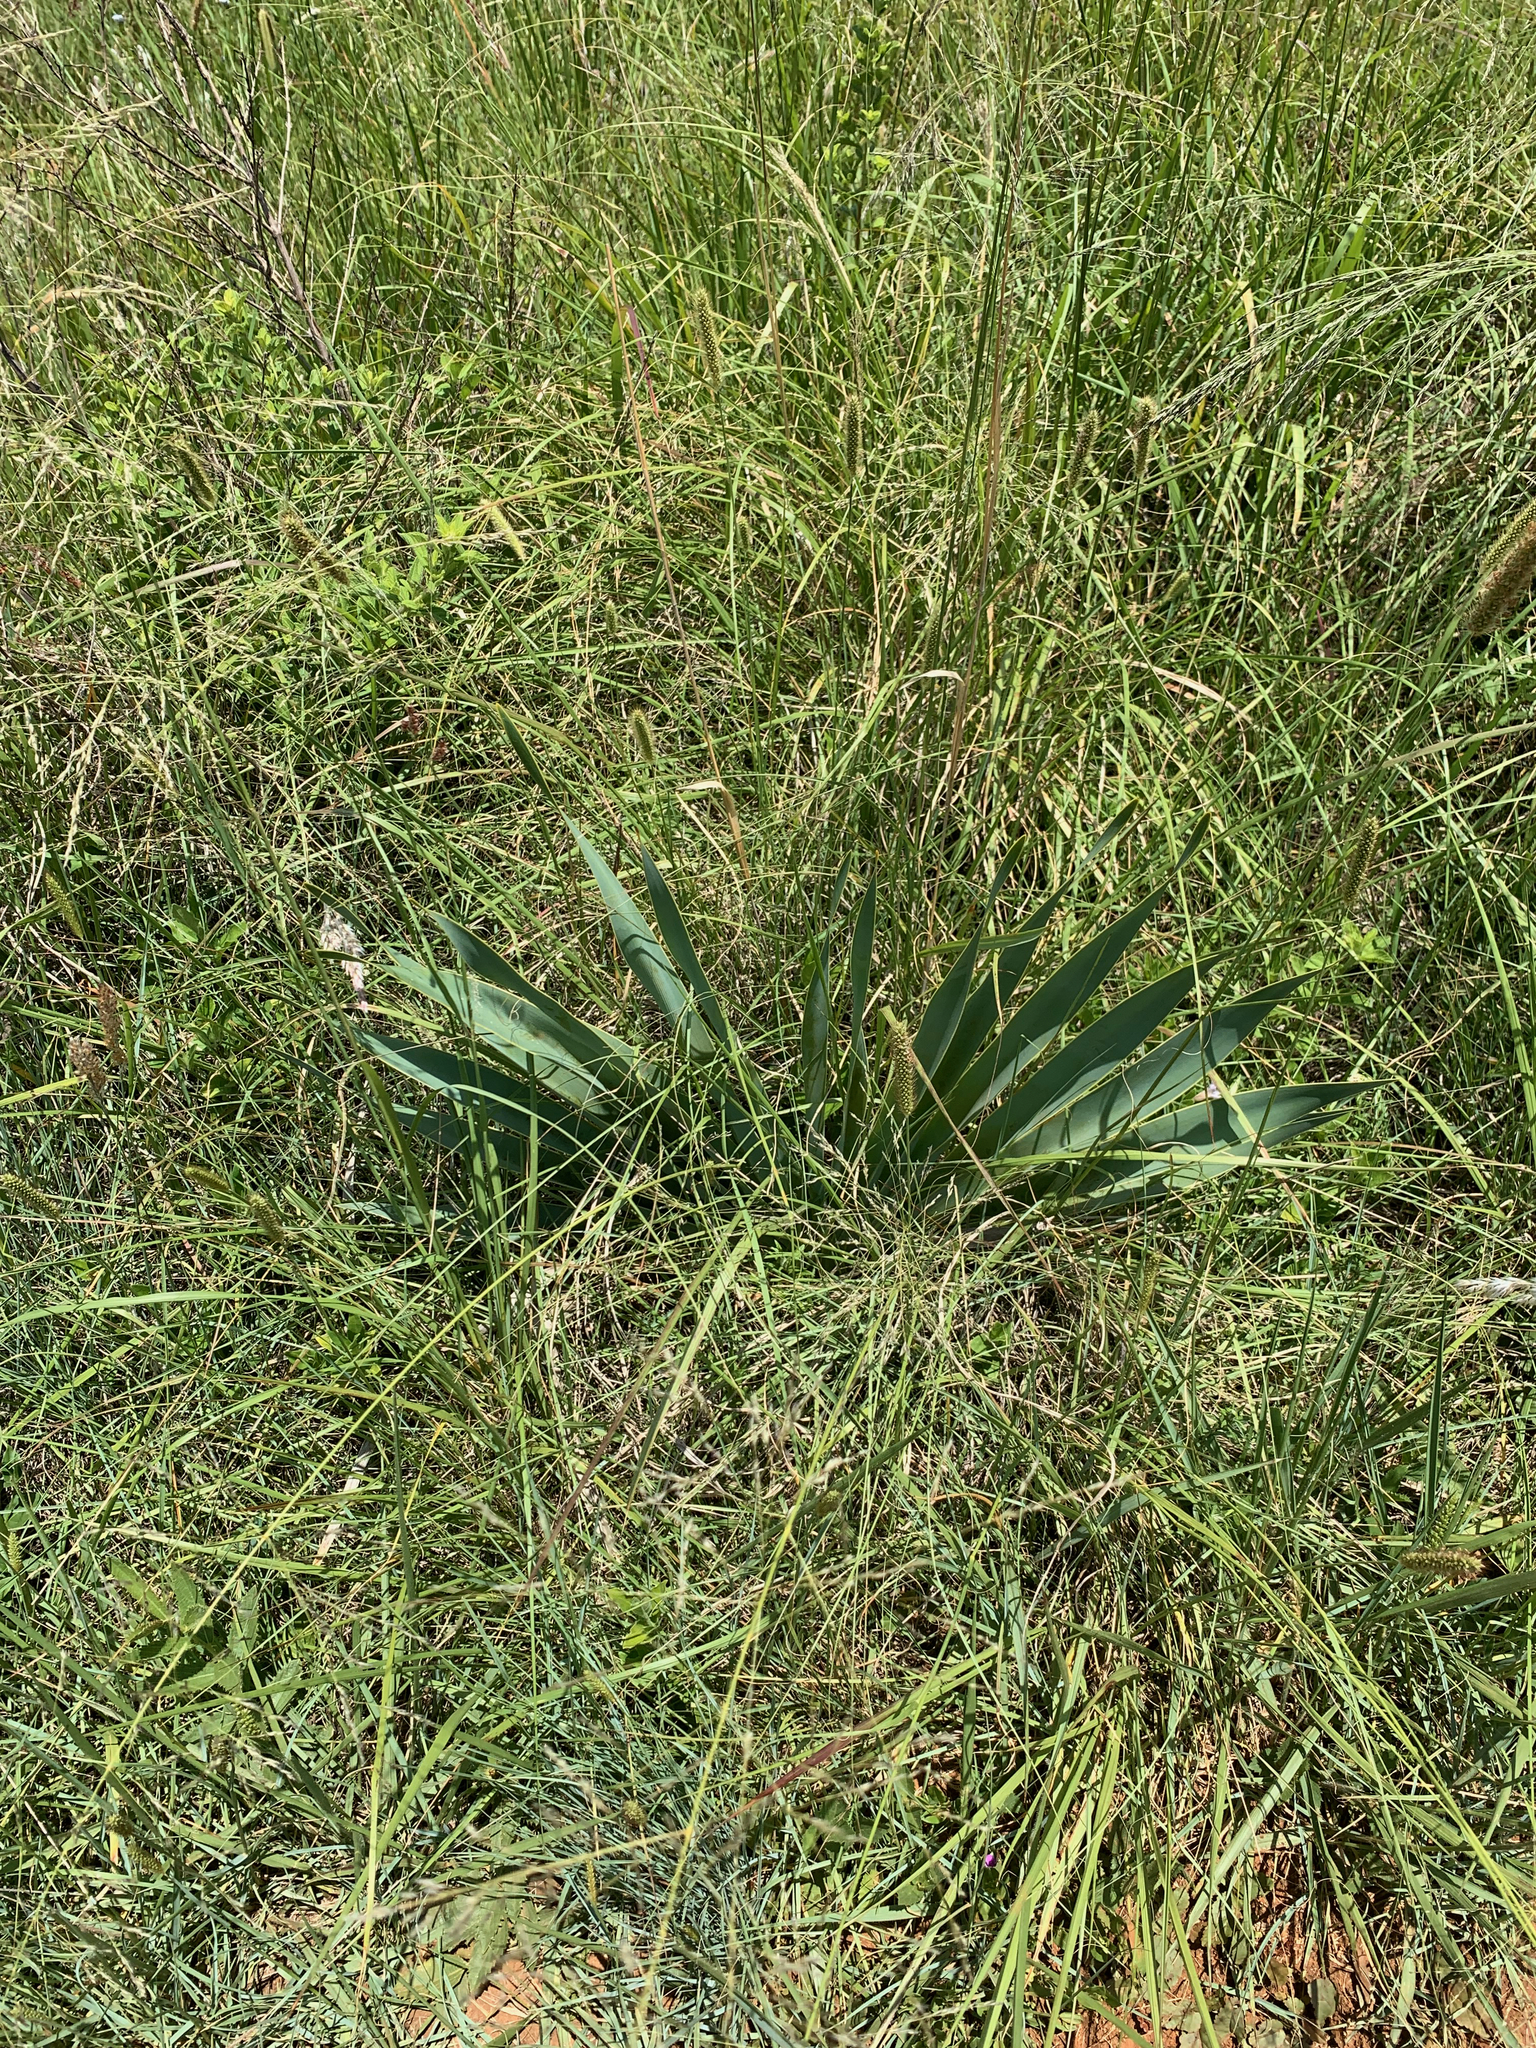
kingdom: Plantae
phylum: Tracheophyta
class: Liliopsida
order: Asparagales
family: Amaryllidaceae
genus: Boophone
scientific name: Boophone disticha
